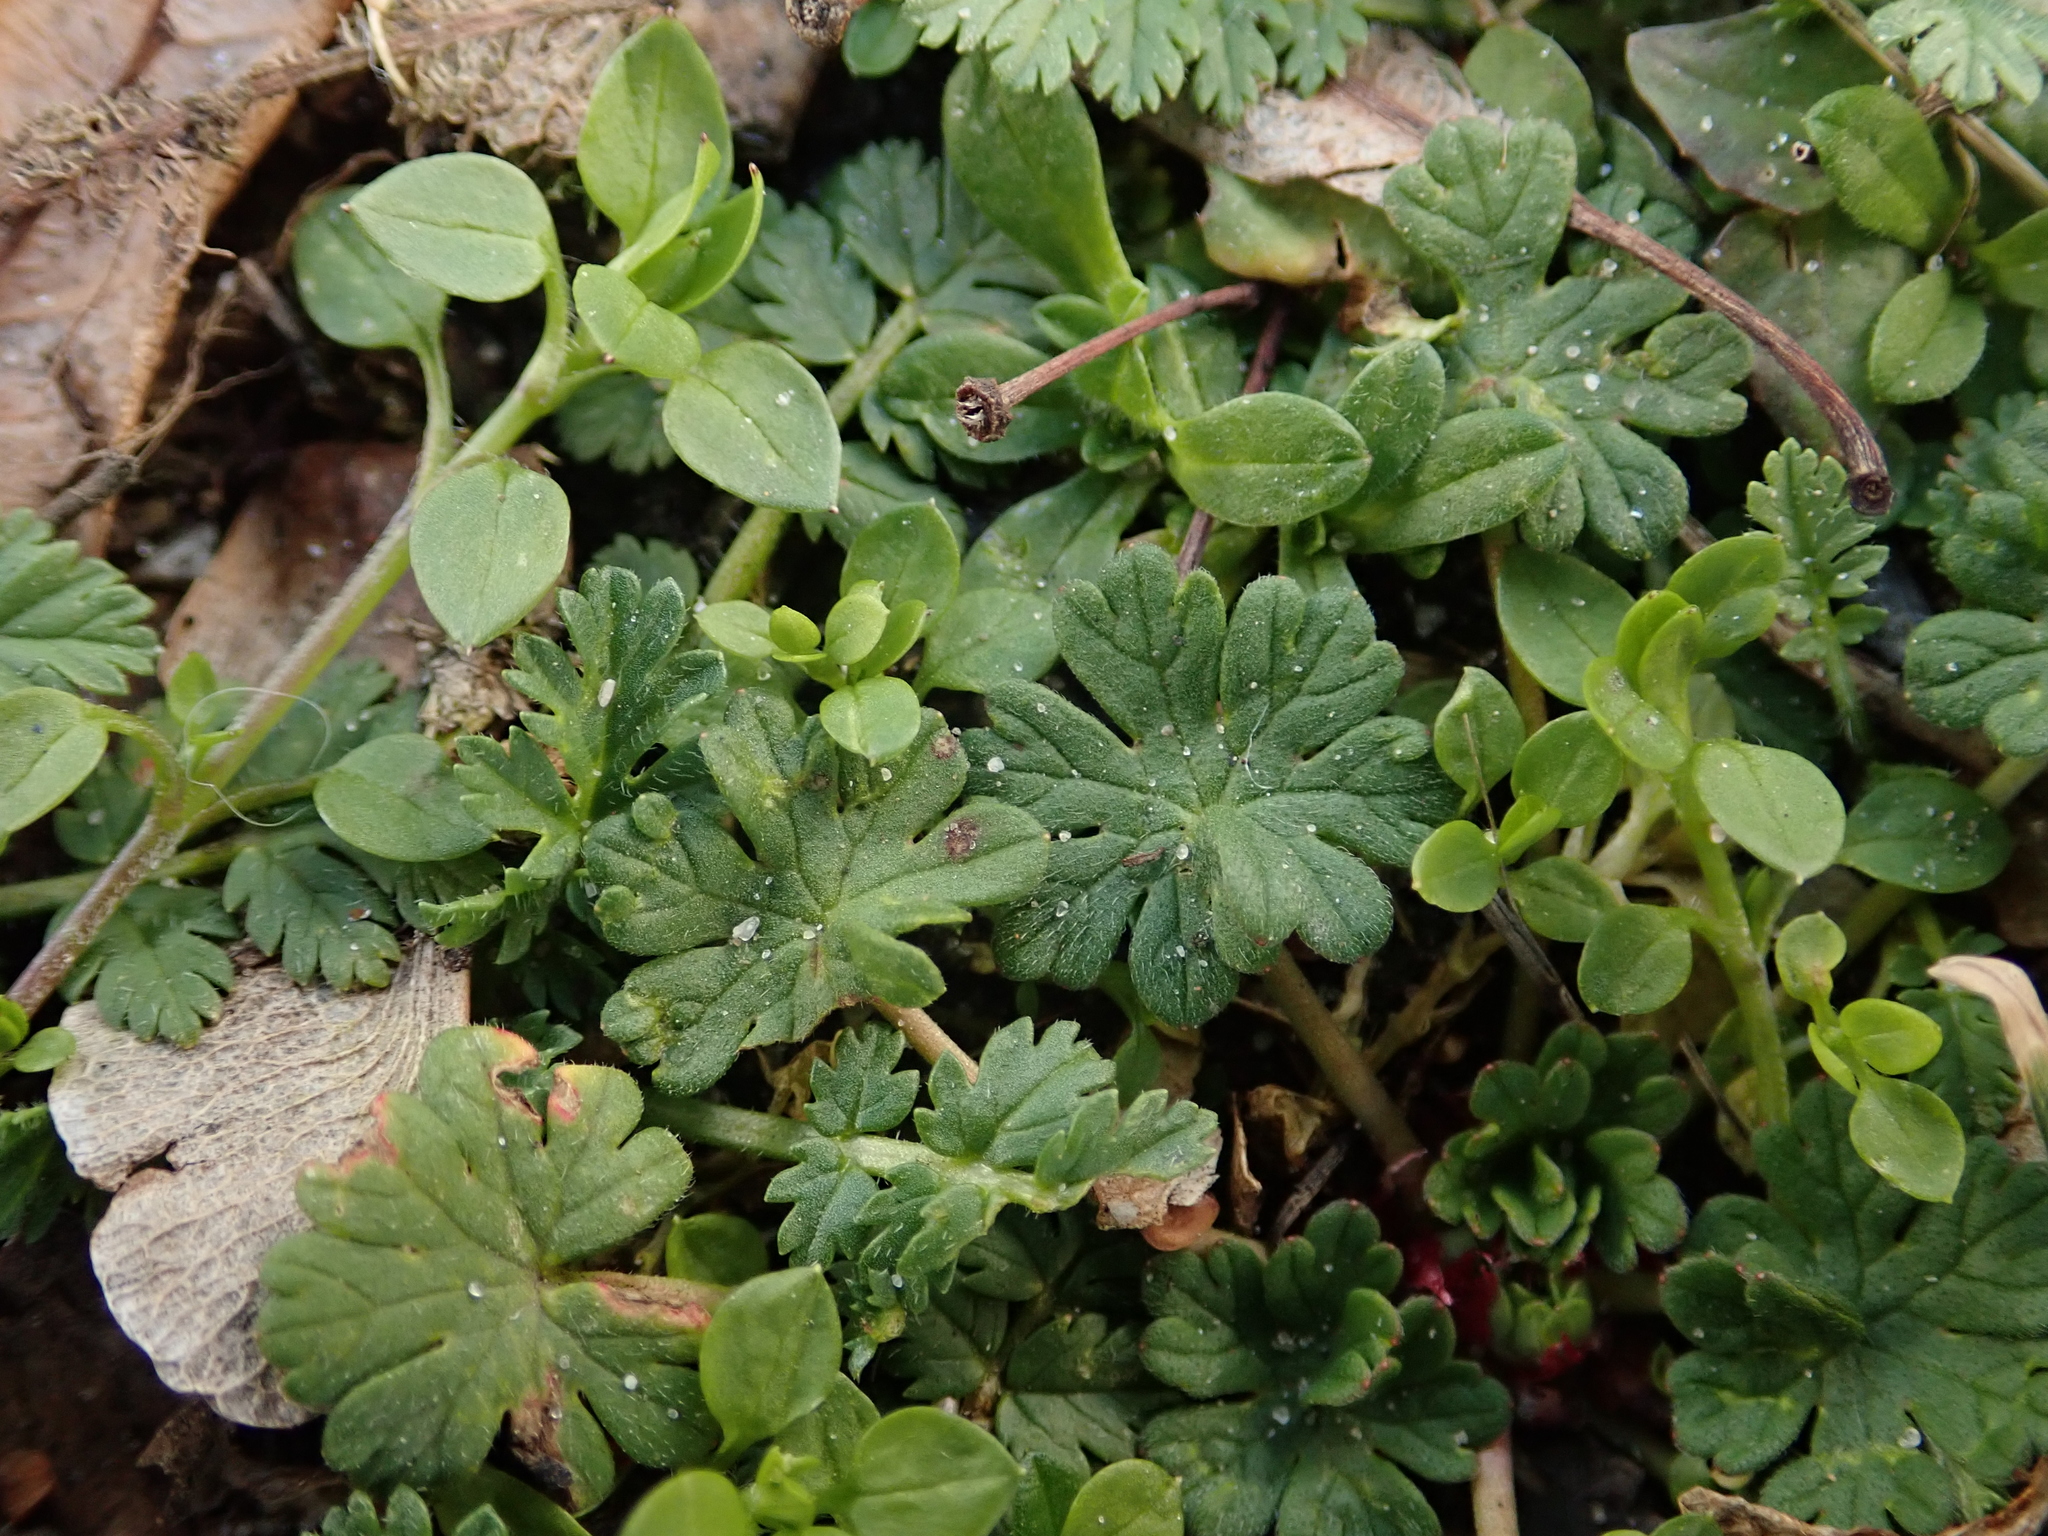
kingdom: Plantae
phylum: Tracheophyta
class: Magnoliopsida
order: Geraniales
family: Geraniaceae
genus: Geranium
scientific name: Geranium molle
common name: Dove's-foot crane's-bill
